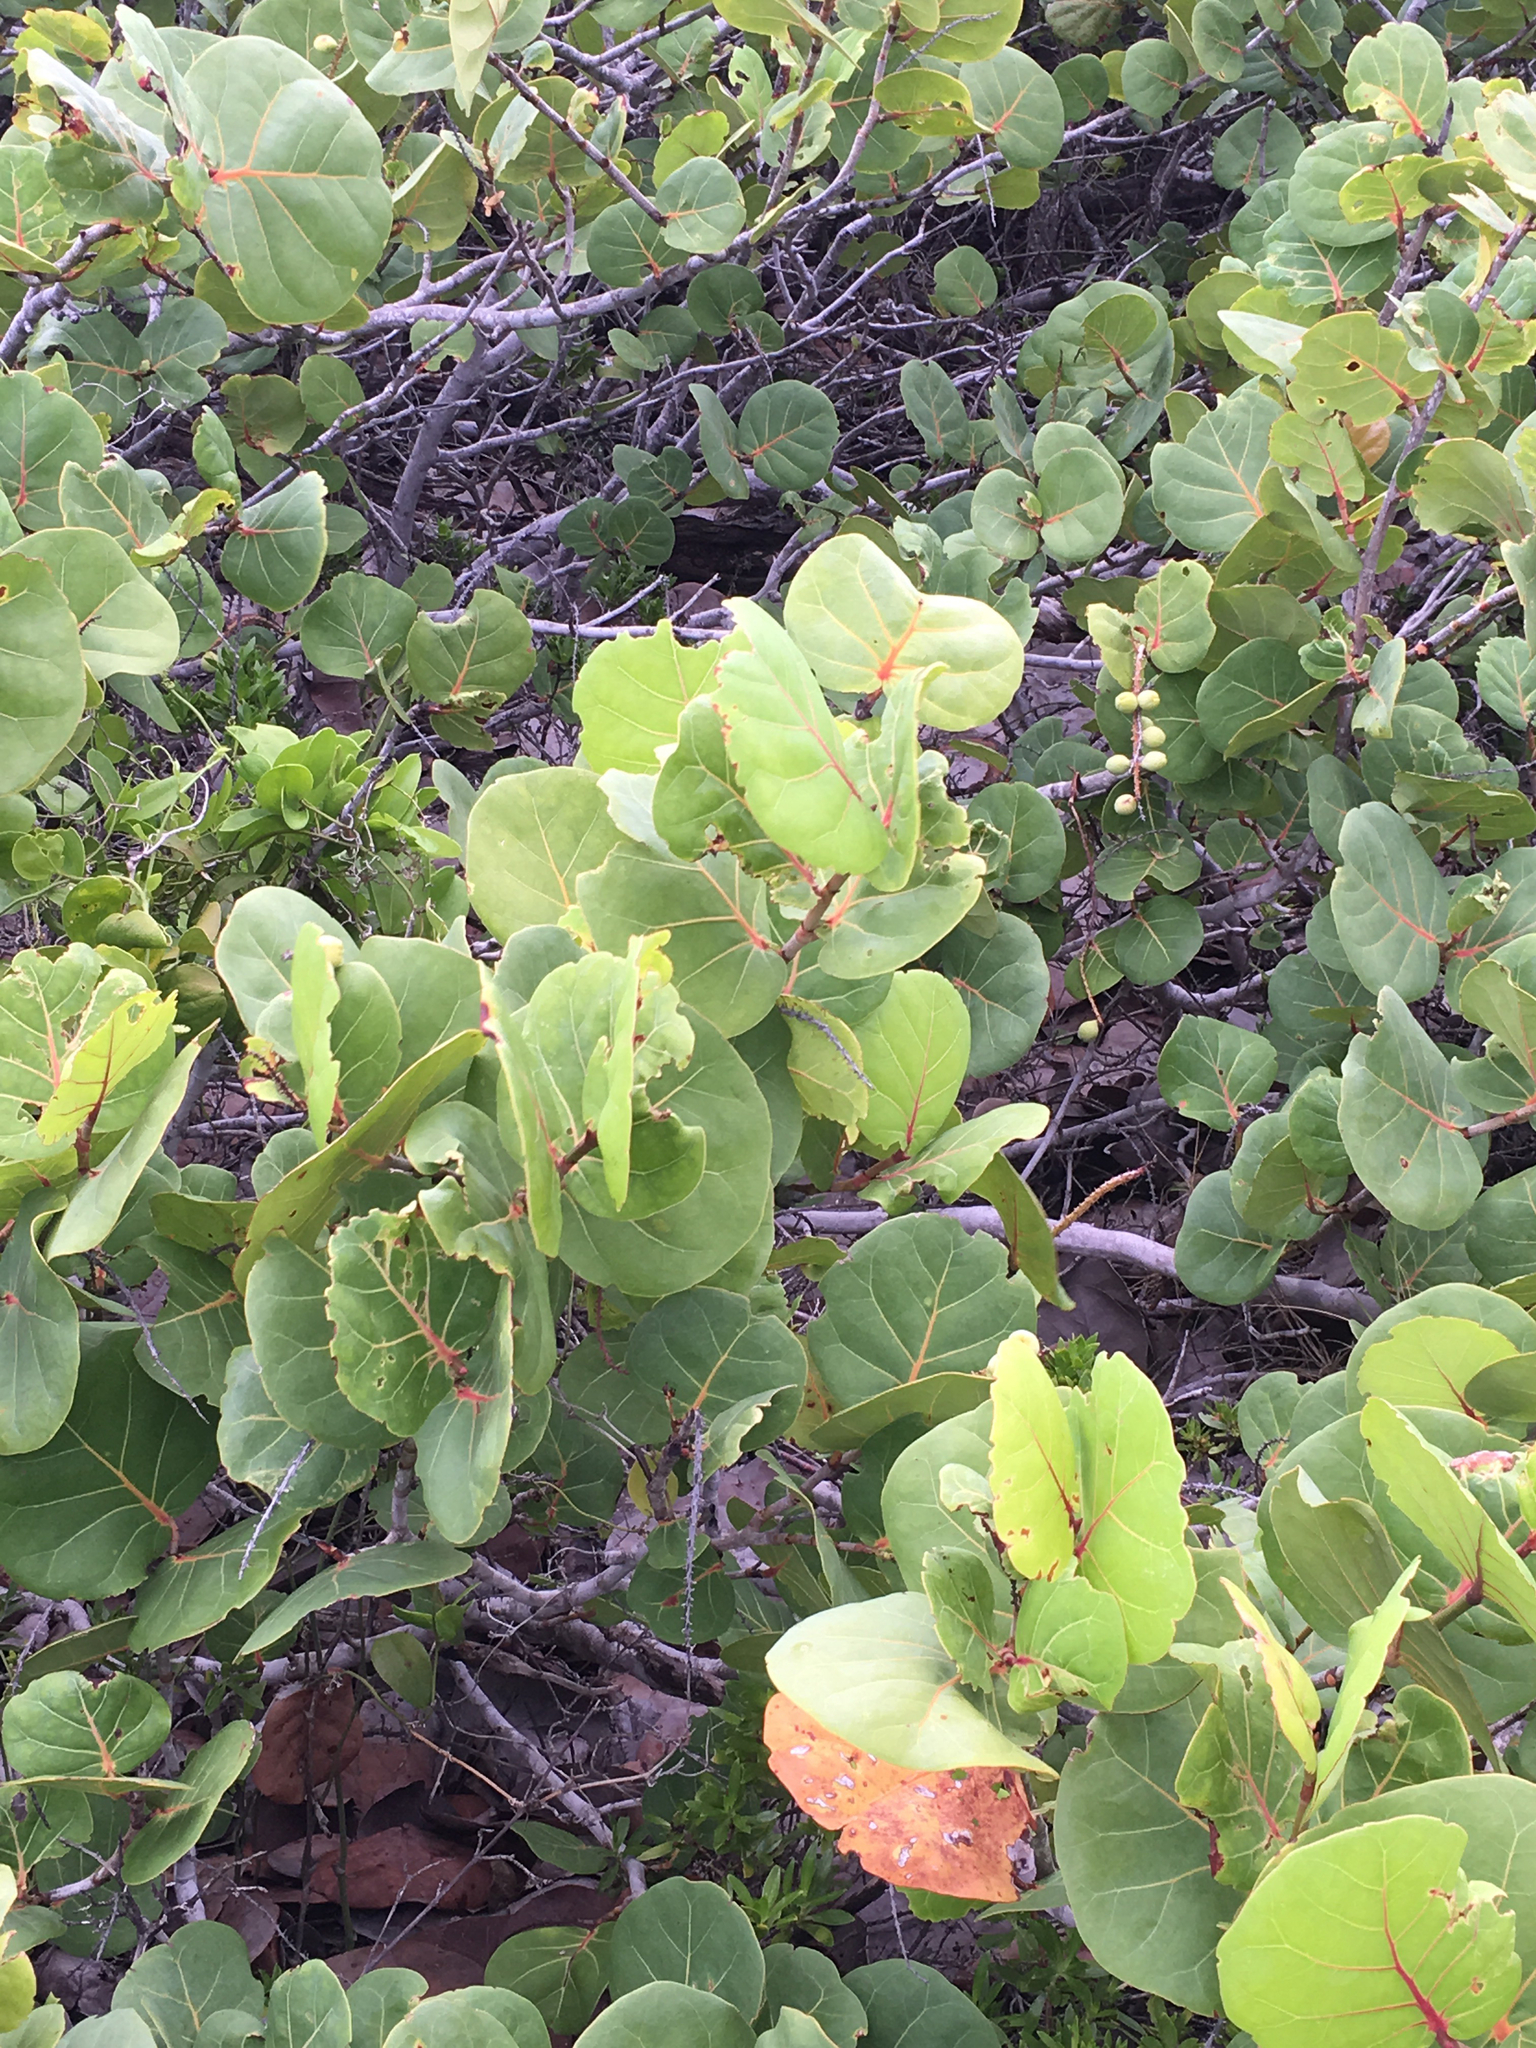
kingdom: Plantae
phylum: Tracheophyta
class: Magnoliopsida
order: Caryophyllales
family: Polygonaceae
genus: Coccoloba
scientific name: Coccoloba uvifera
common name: Seagrape
